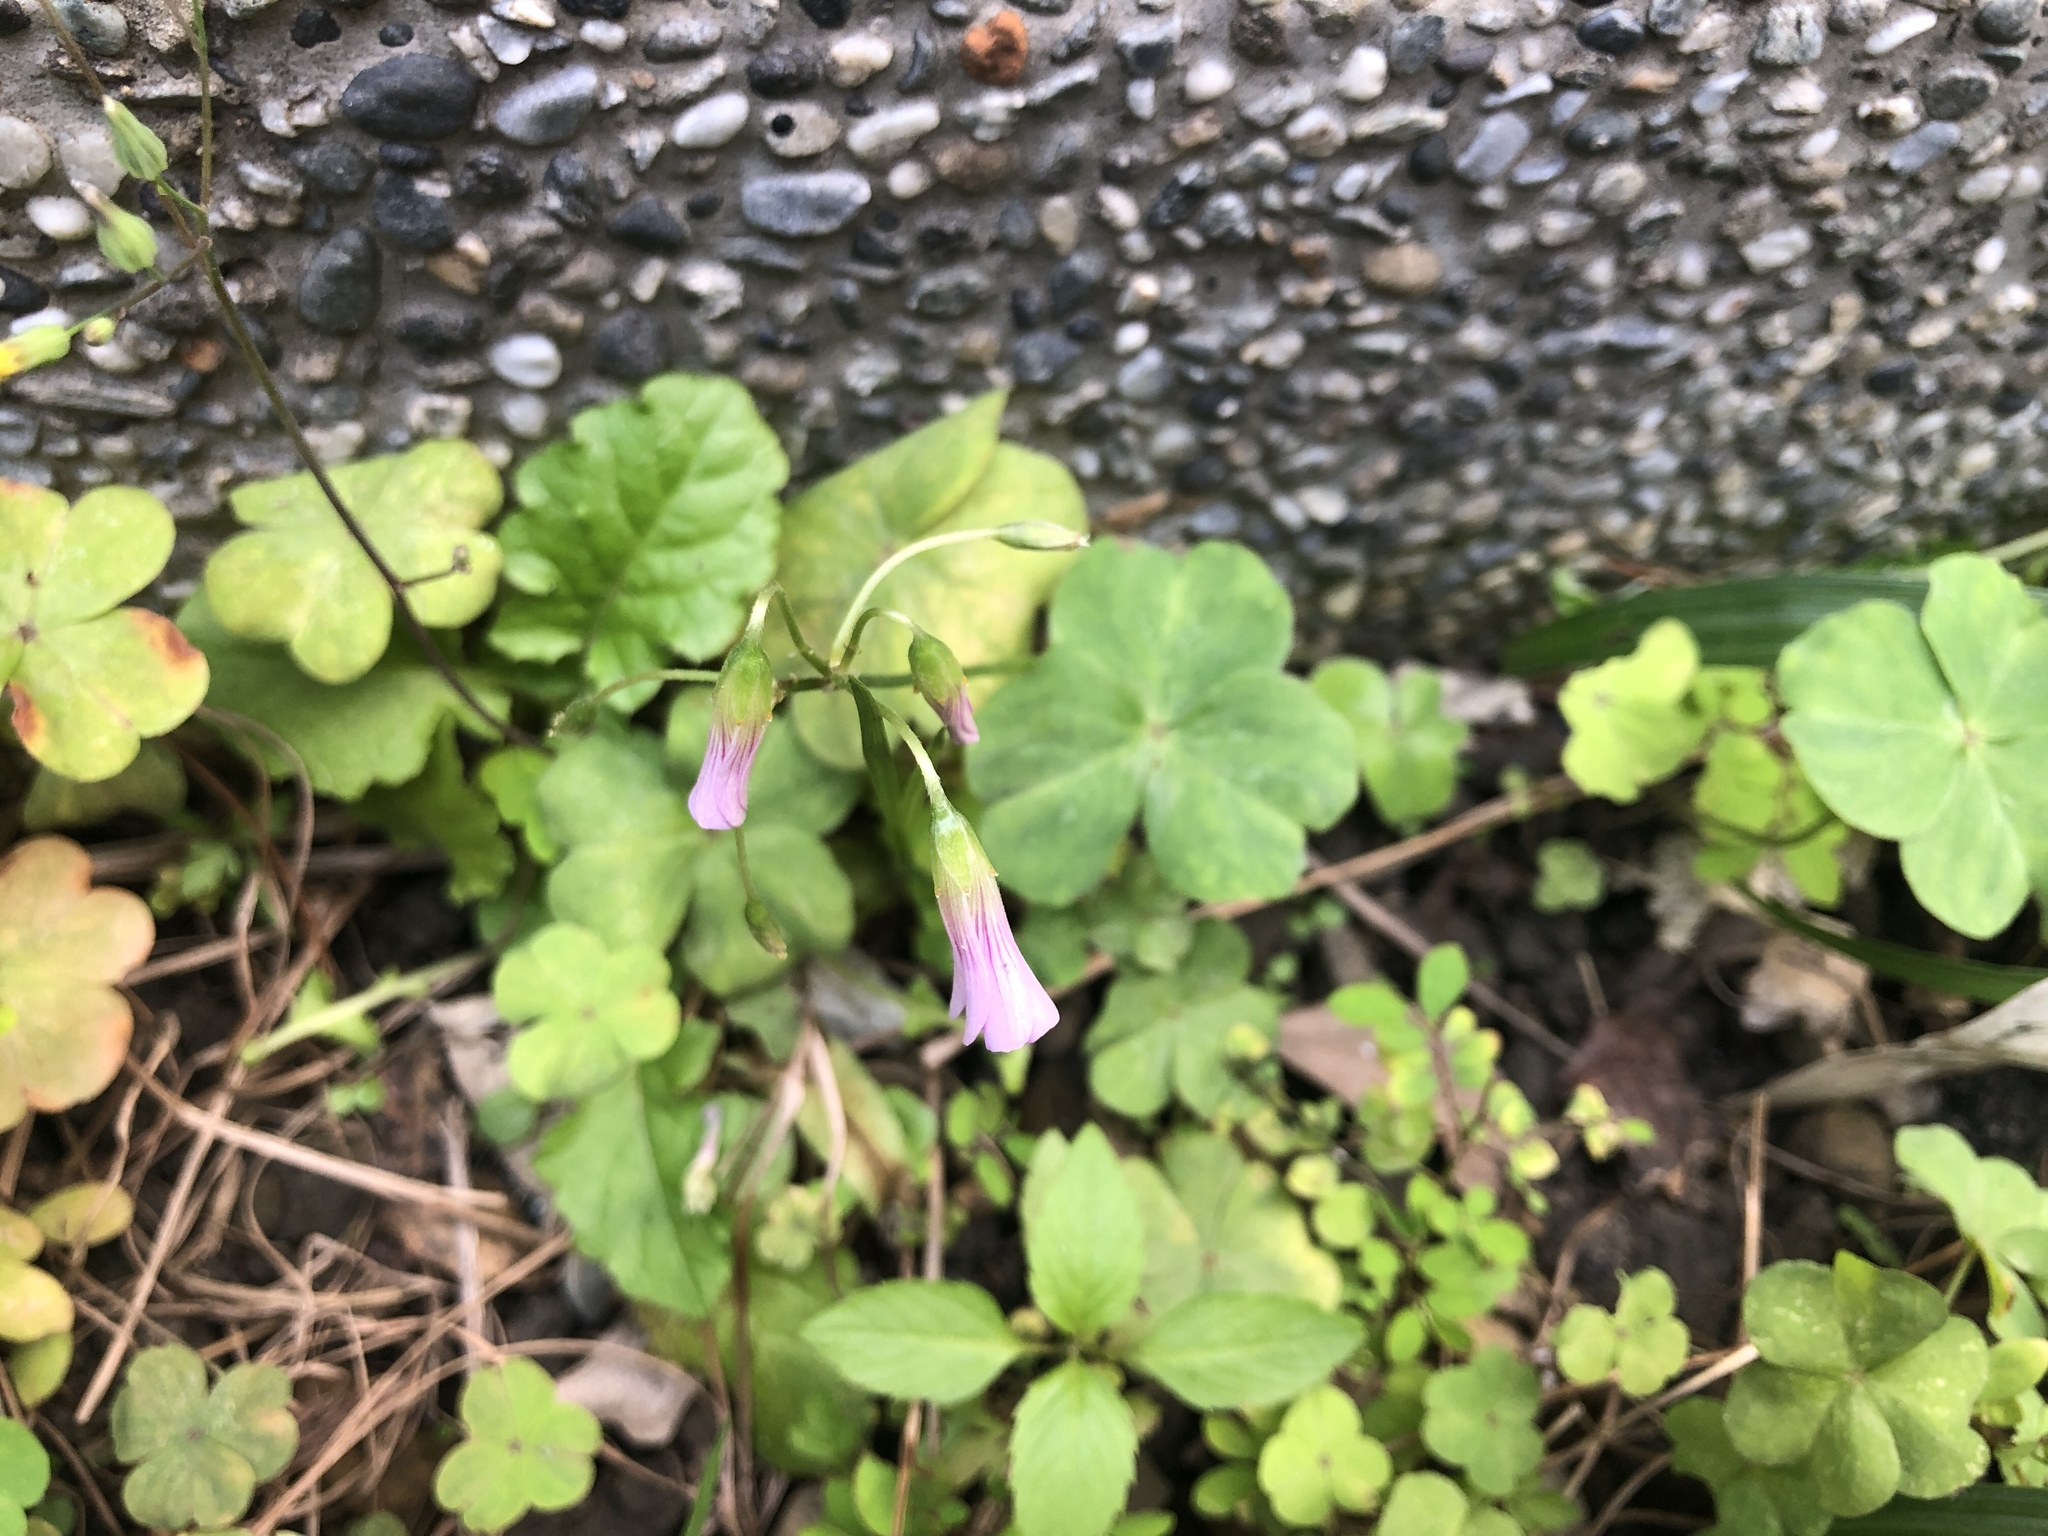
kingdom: Plantae
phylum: Tracheophyta
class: Magnoliopsida
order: Oxalidales
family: Oxalidaceae
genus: Oxalis
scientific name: Oxalis debilis
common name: Large-flowered pink-sorrel
